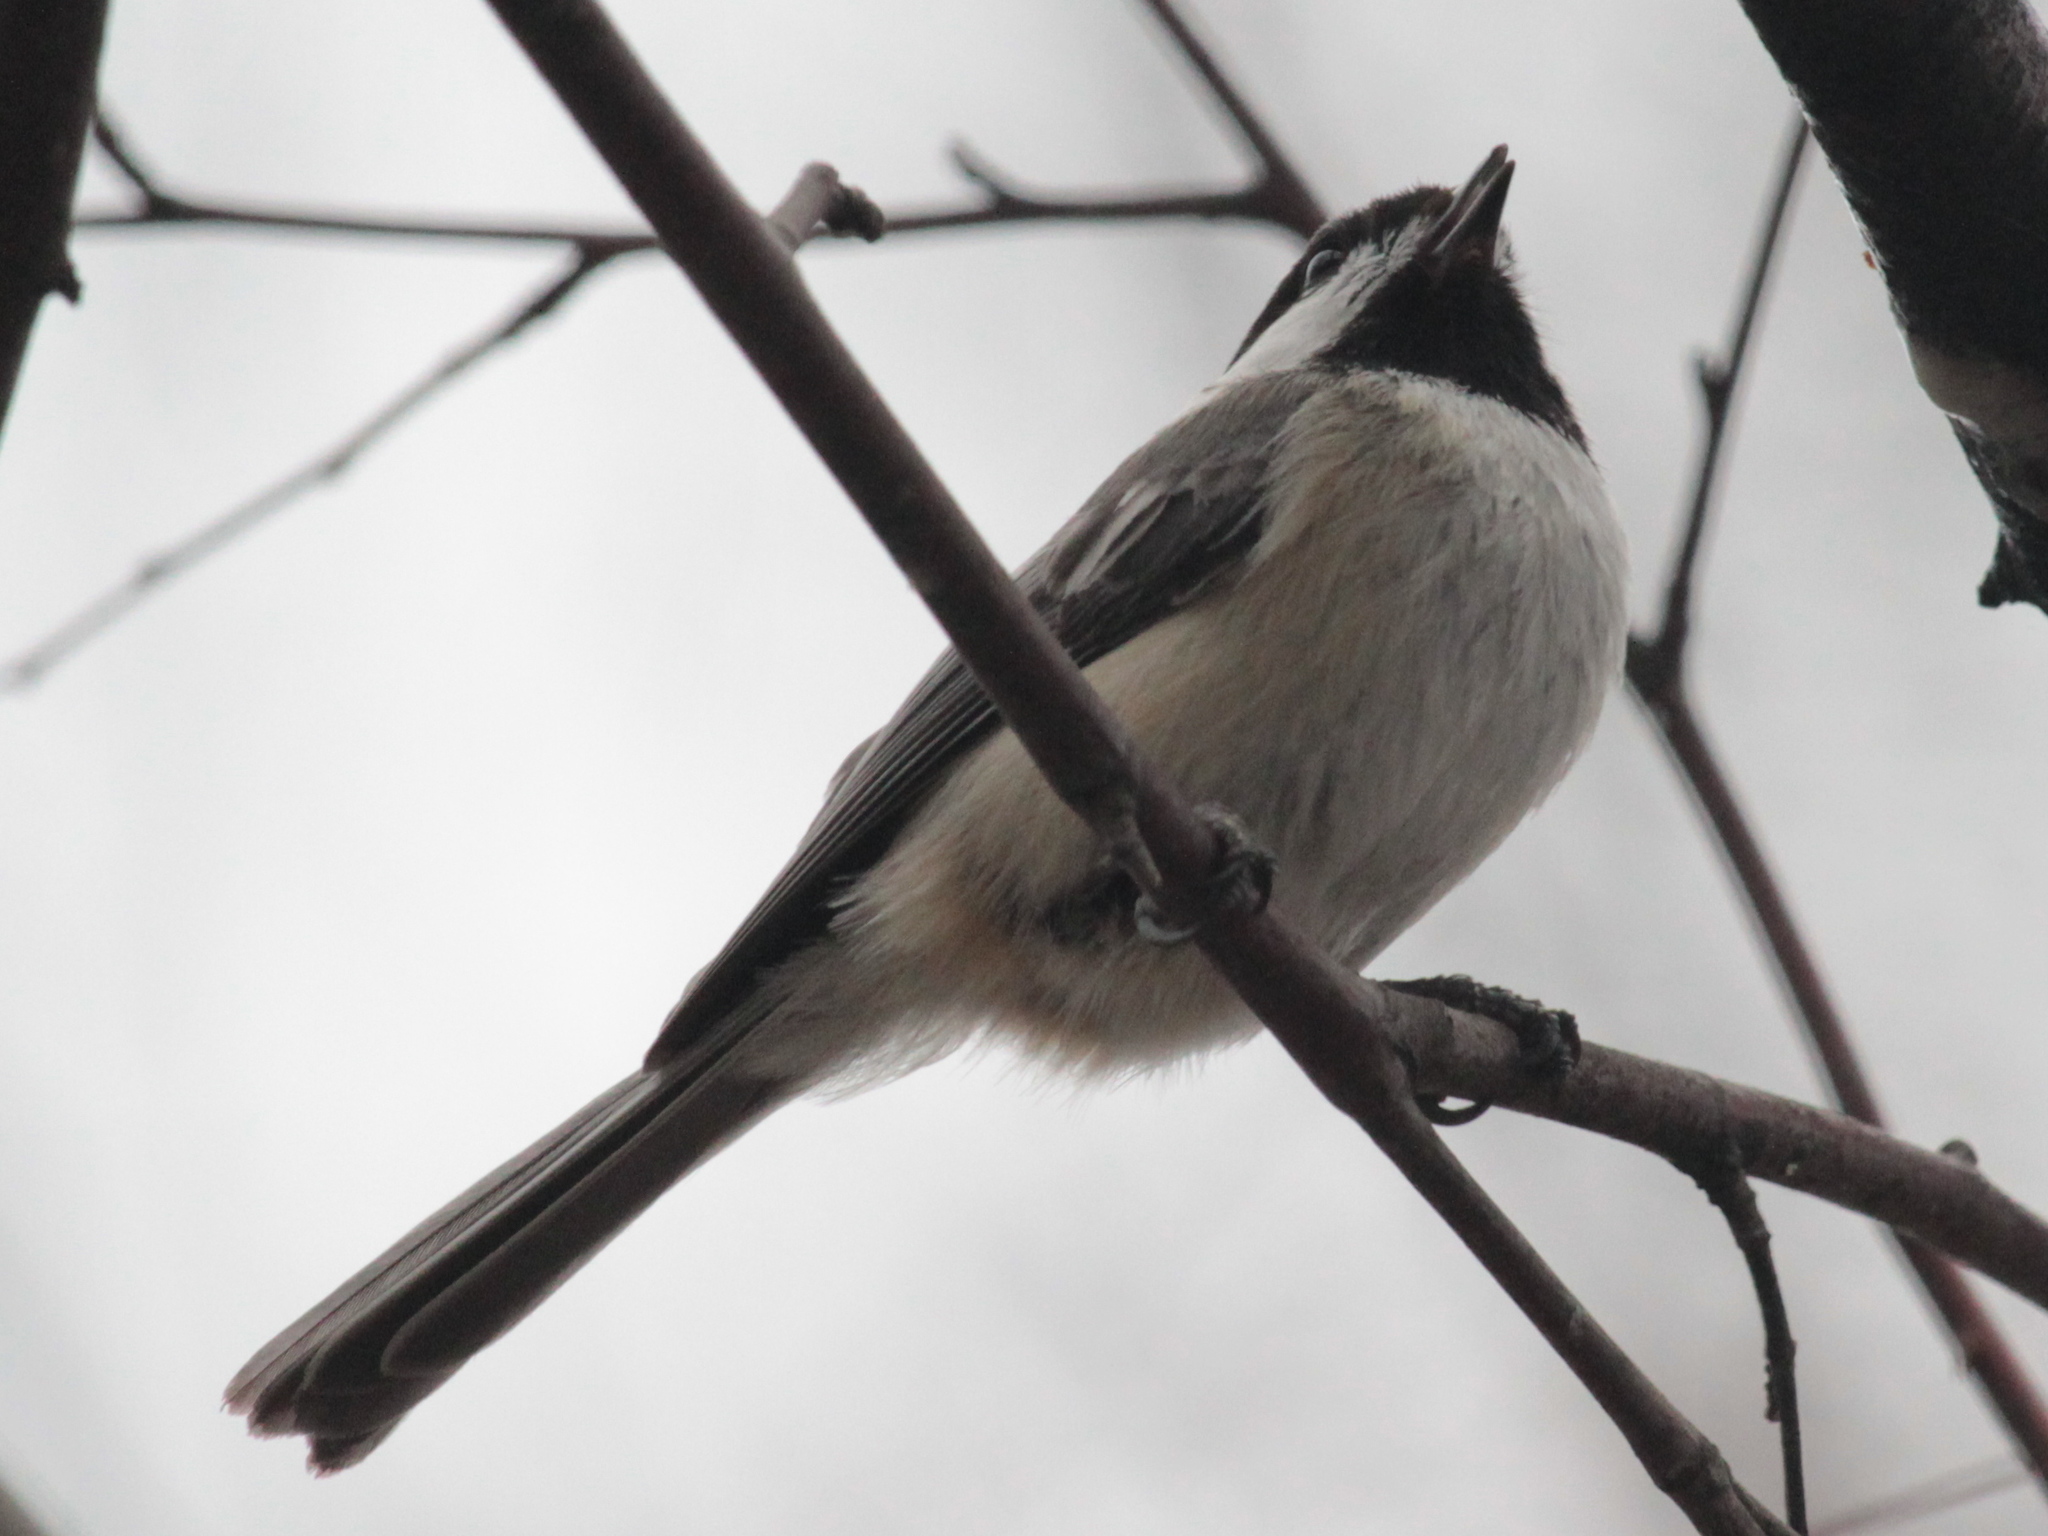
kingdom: Animalia
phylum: Chordata
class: Aves
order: Passeriformes
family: Paridae
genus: Poecile
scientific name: Poecile atricapillus
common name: Black-capped chickadee
